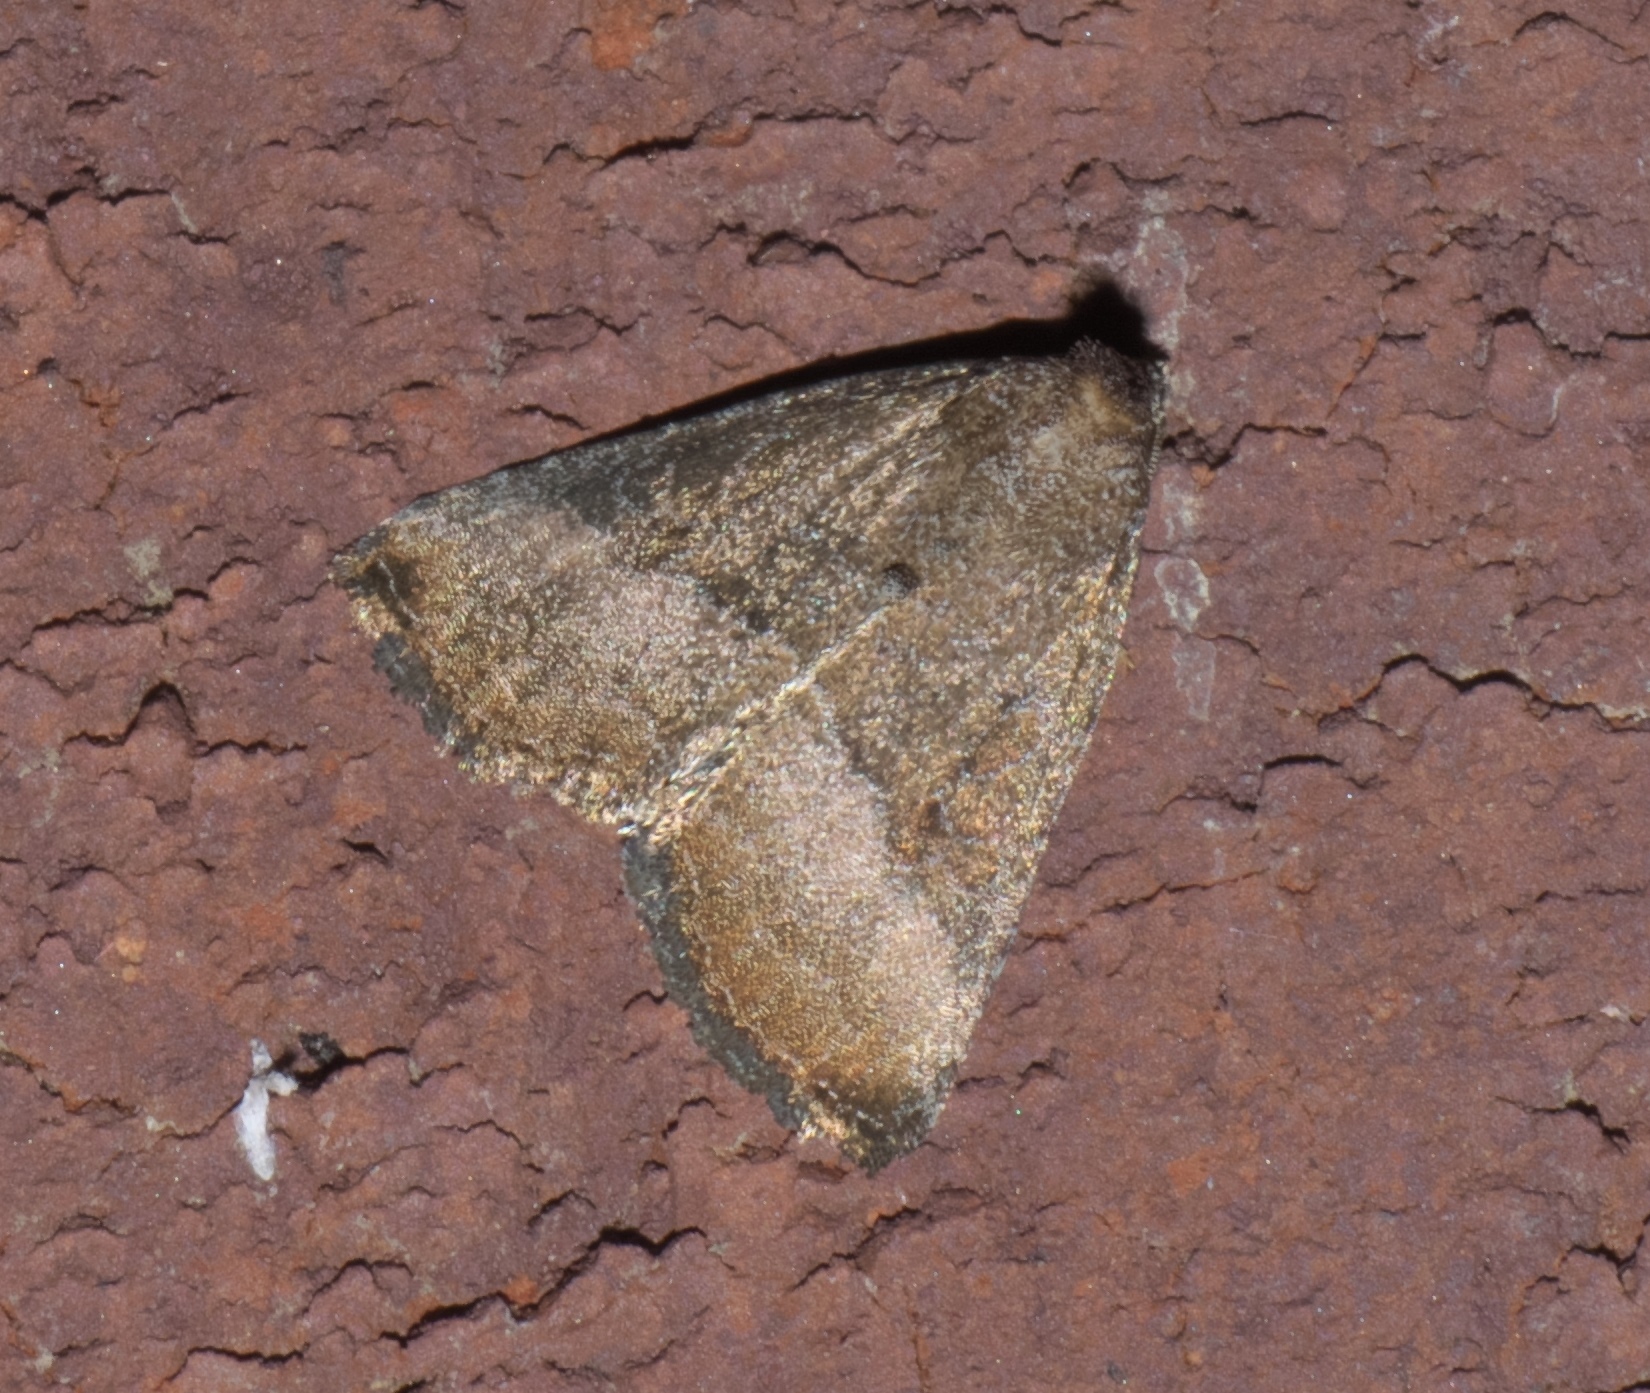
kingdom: Animalia
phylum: Arthropoda
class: Insecta
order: Lepidoptera
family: Noctuidae
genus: Ogdoconta
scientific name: Ogdoconta cinereola
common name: Common pinkband
